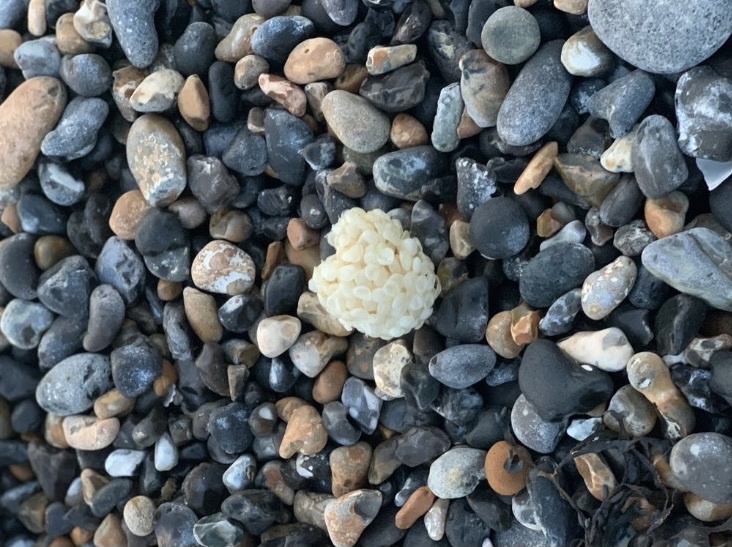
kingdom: Animalia
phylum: Mollusca
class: Gastropoda
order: Neogastropoda
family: Buccinidae
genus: Buccinum
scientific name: Buccinum undatum
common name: Common whelk
